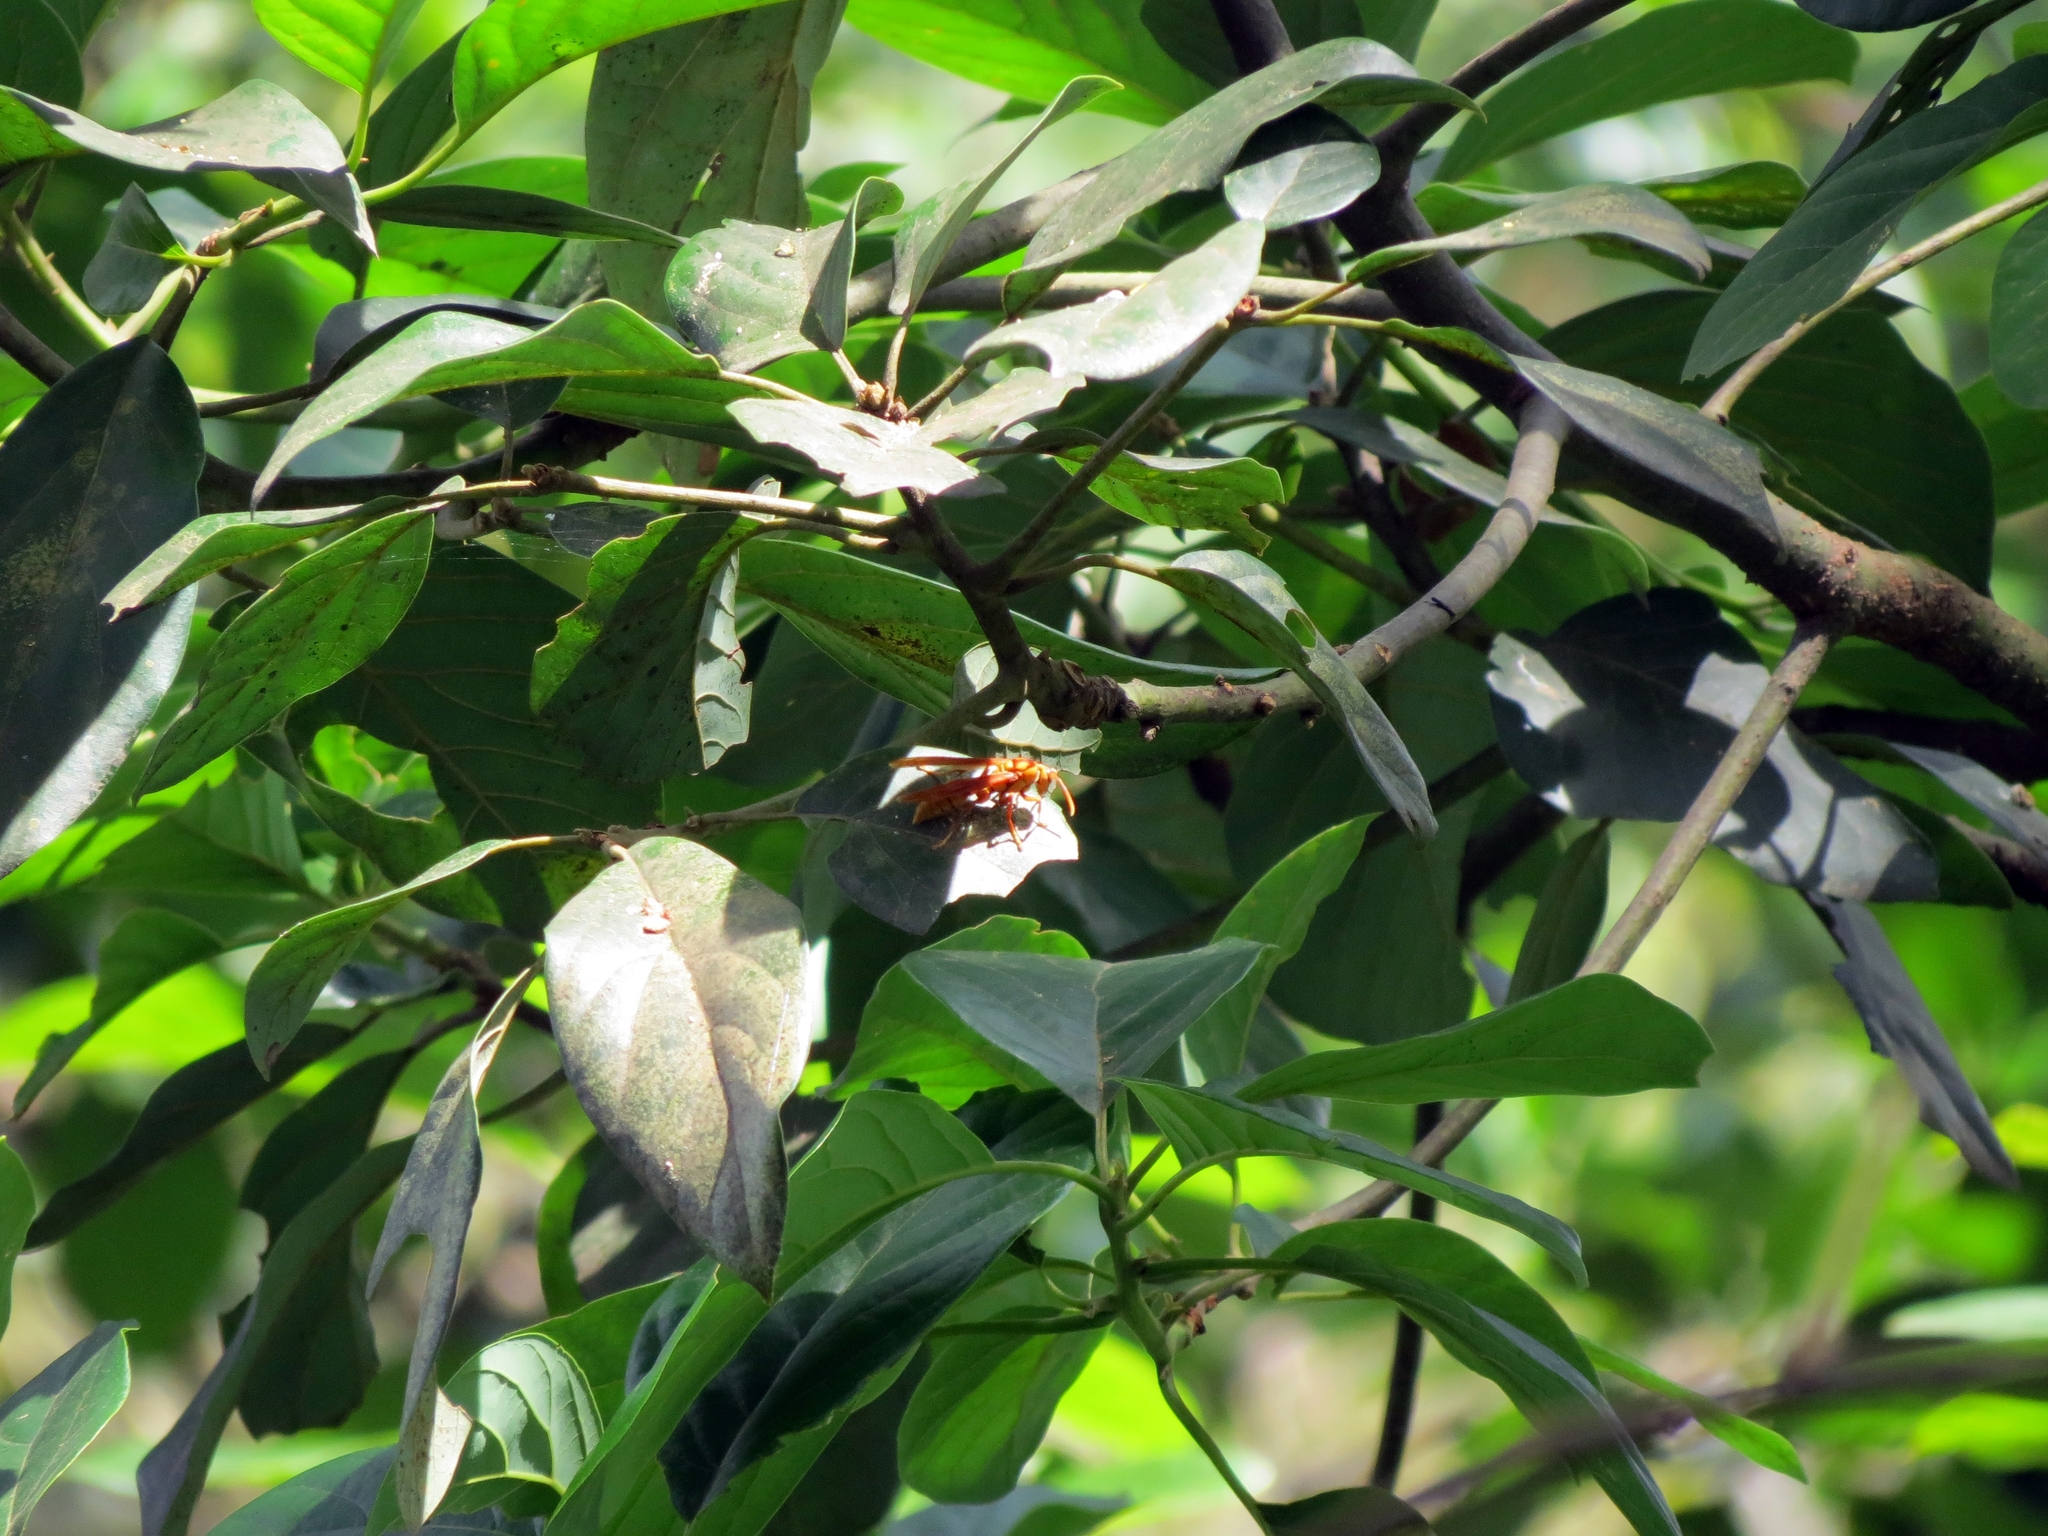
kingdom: Animalia
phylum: Arthropoda
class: Insecta
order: Hymenoptera
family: Eumenidae
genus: Polistes
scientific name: Polistes carnifex
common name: Paper wasp
